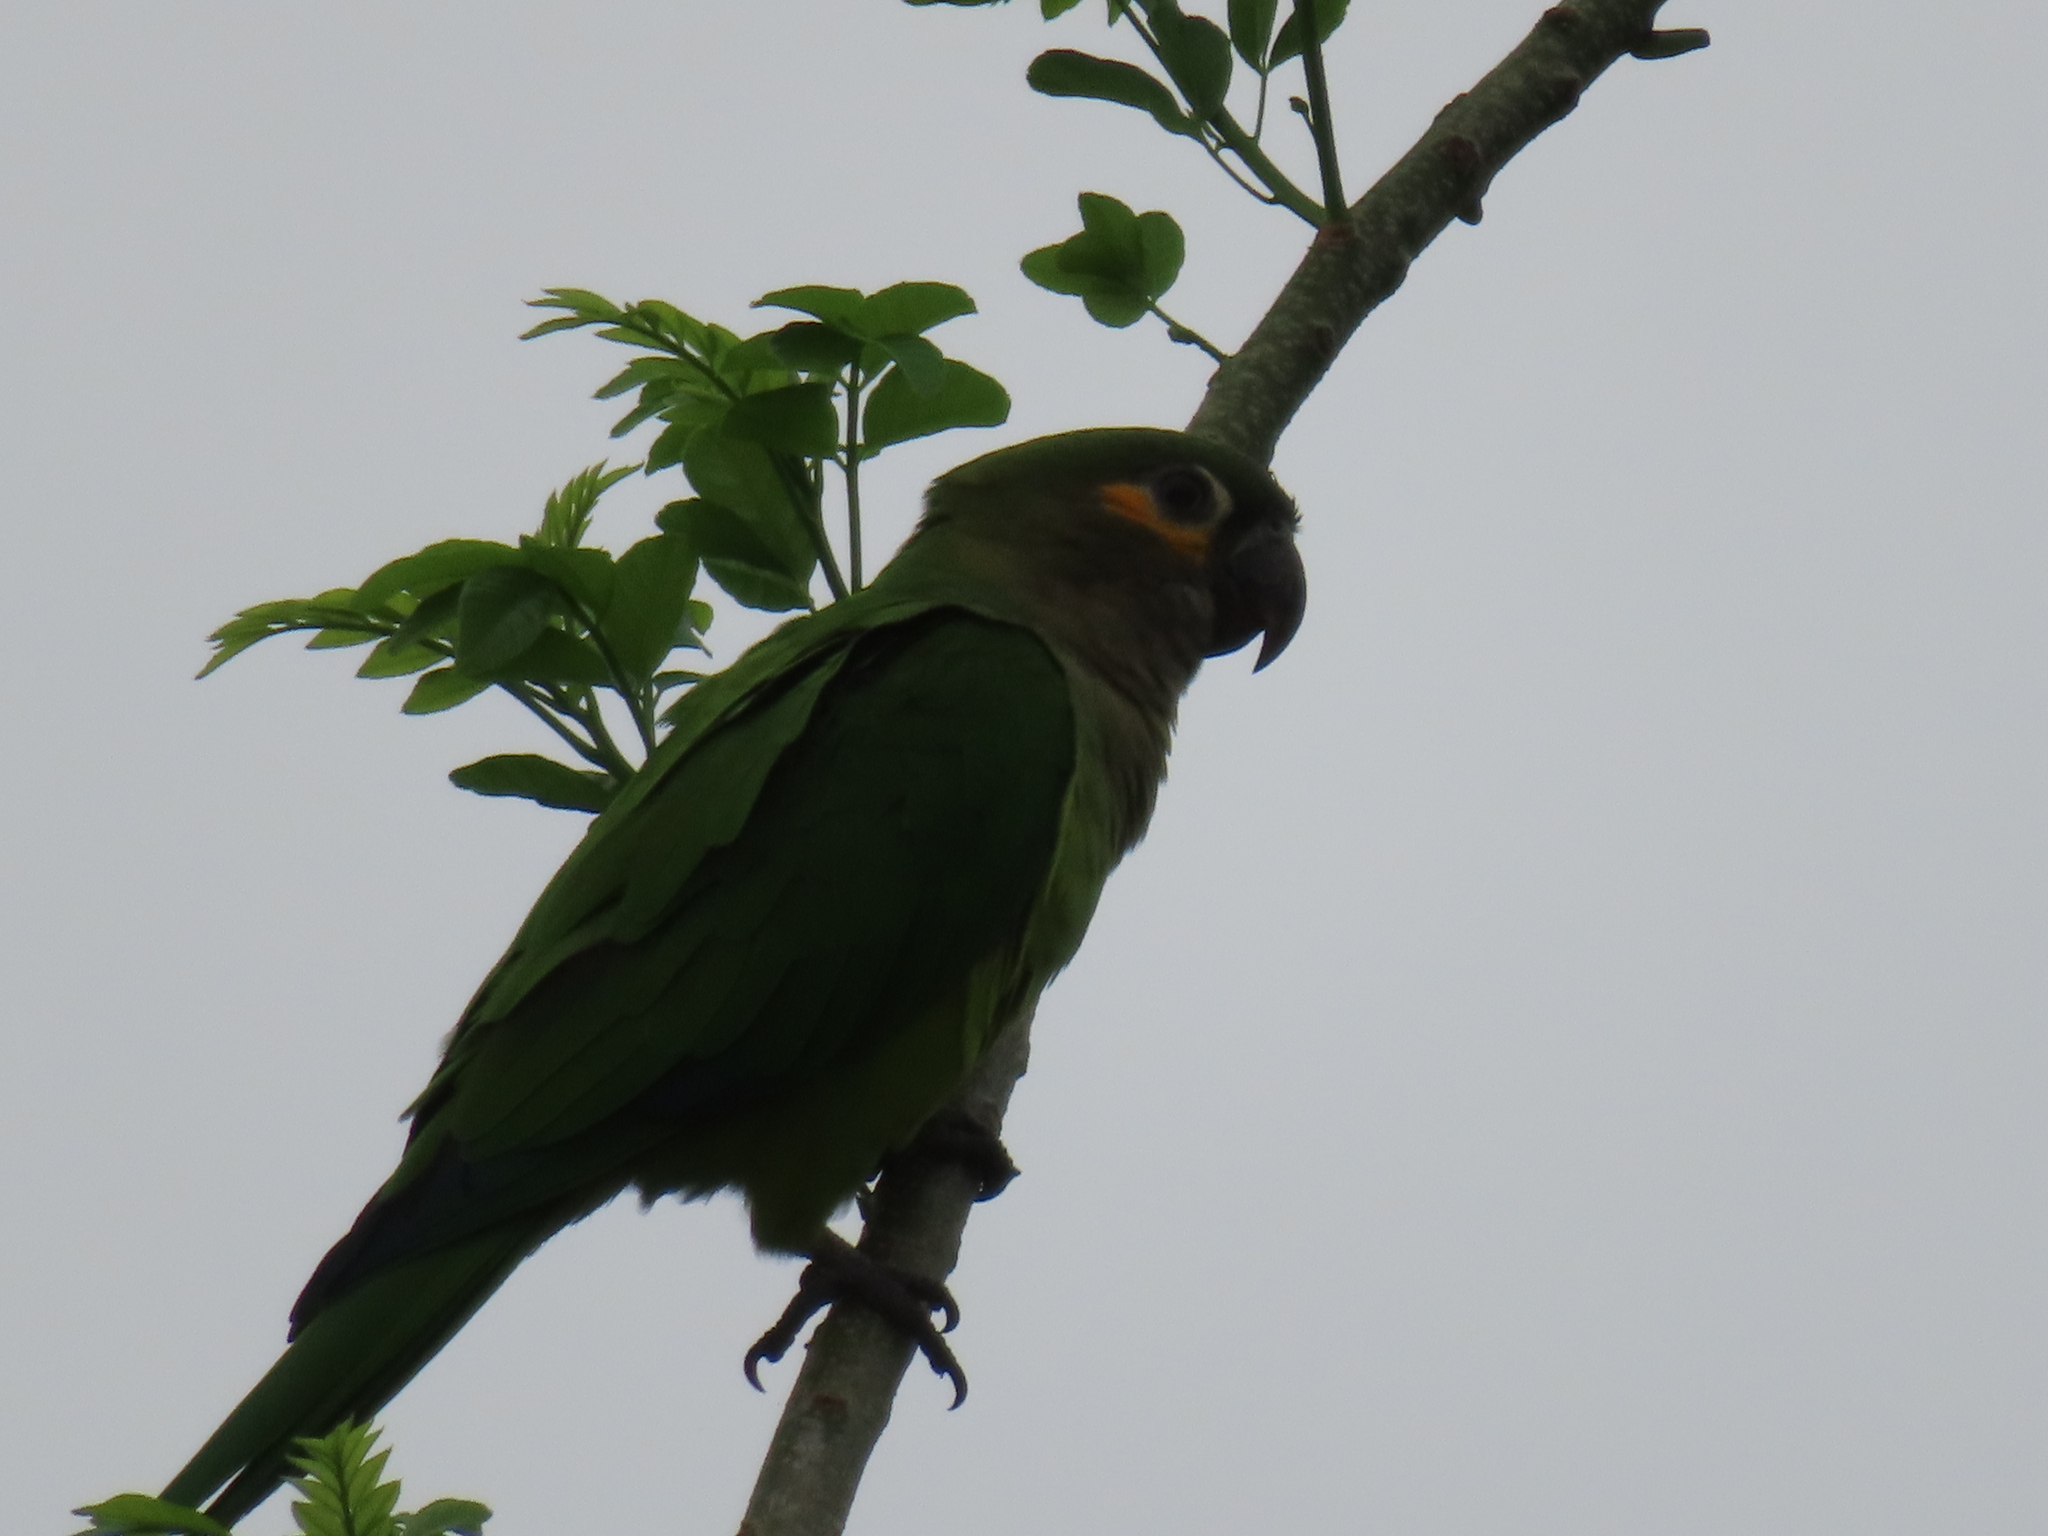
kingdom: Animalia
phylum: Chordata
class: Aves
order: Psittaciformes
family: Psittacidae
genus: Aratinga
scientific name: Aratinga pertinax
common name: Brown-throated parakeet
